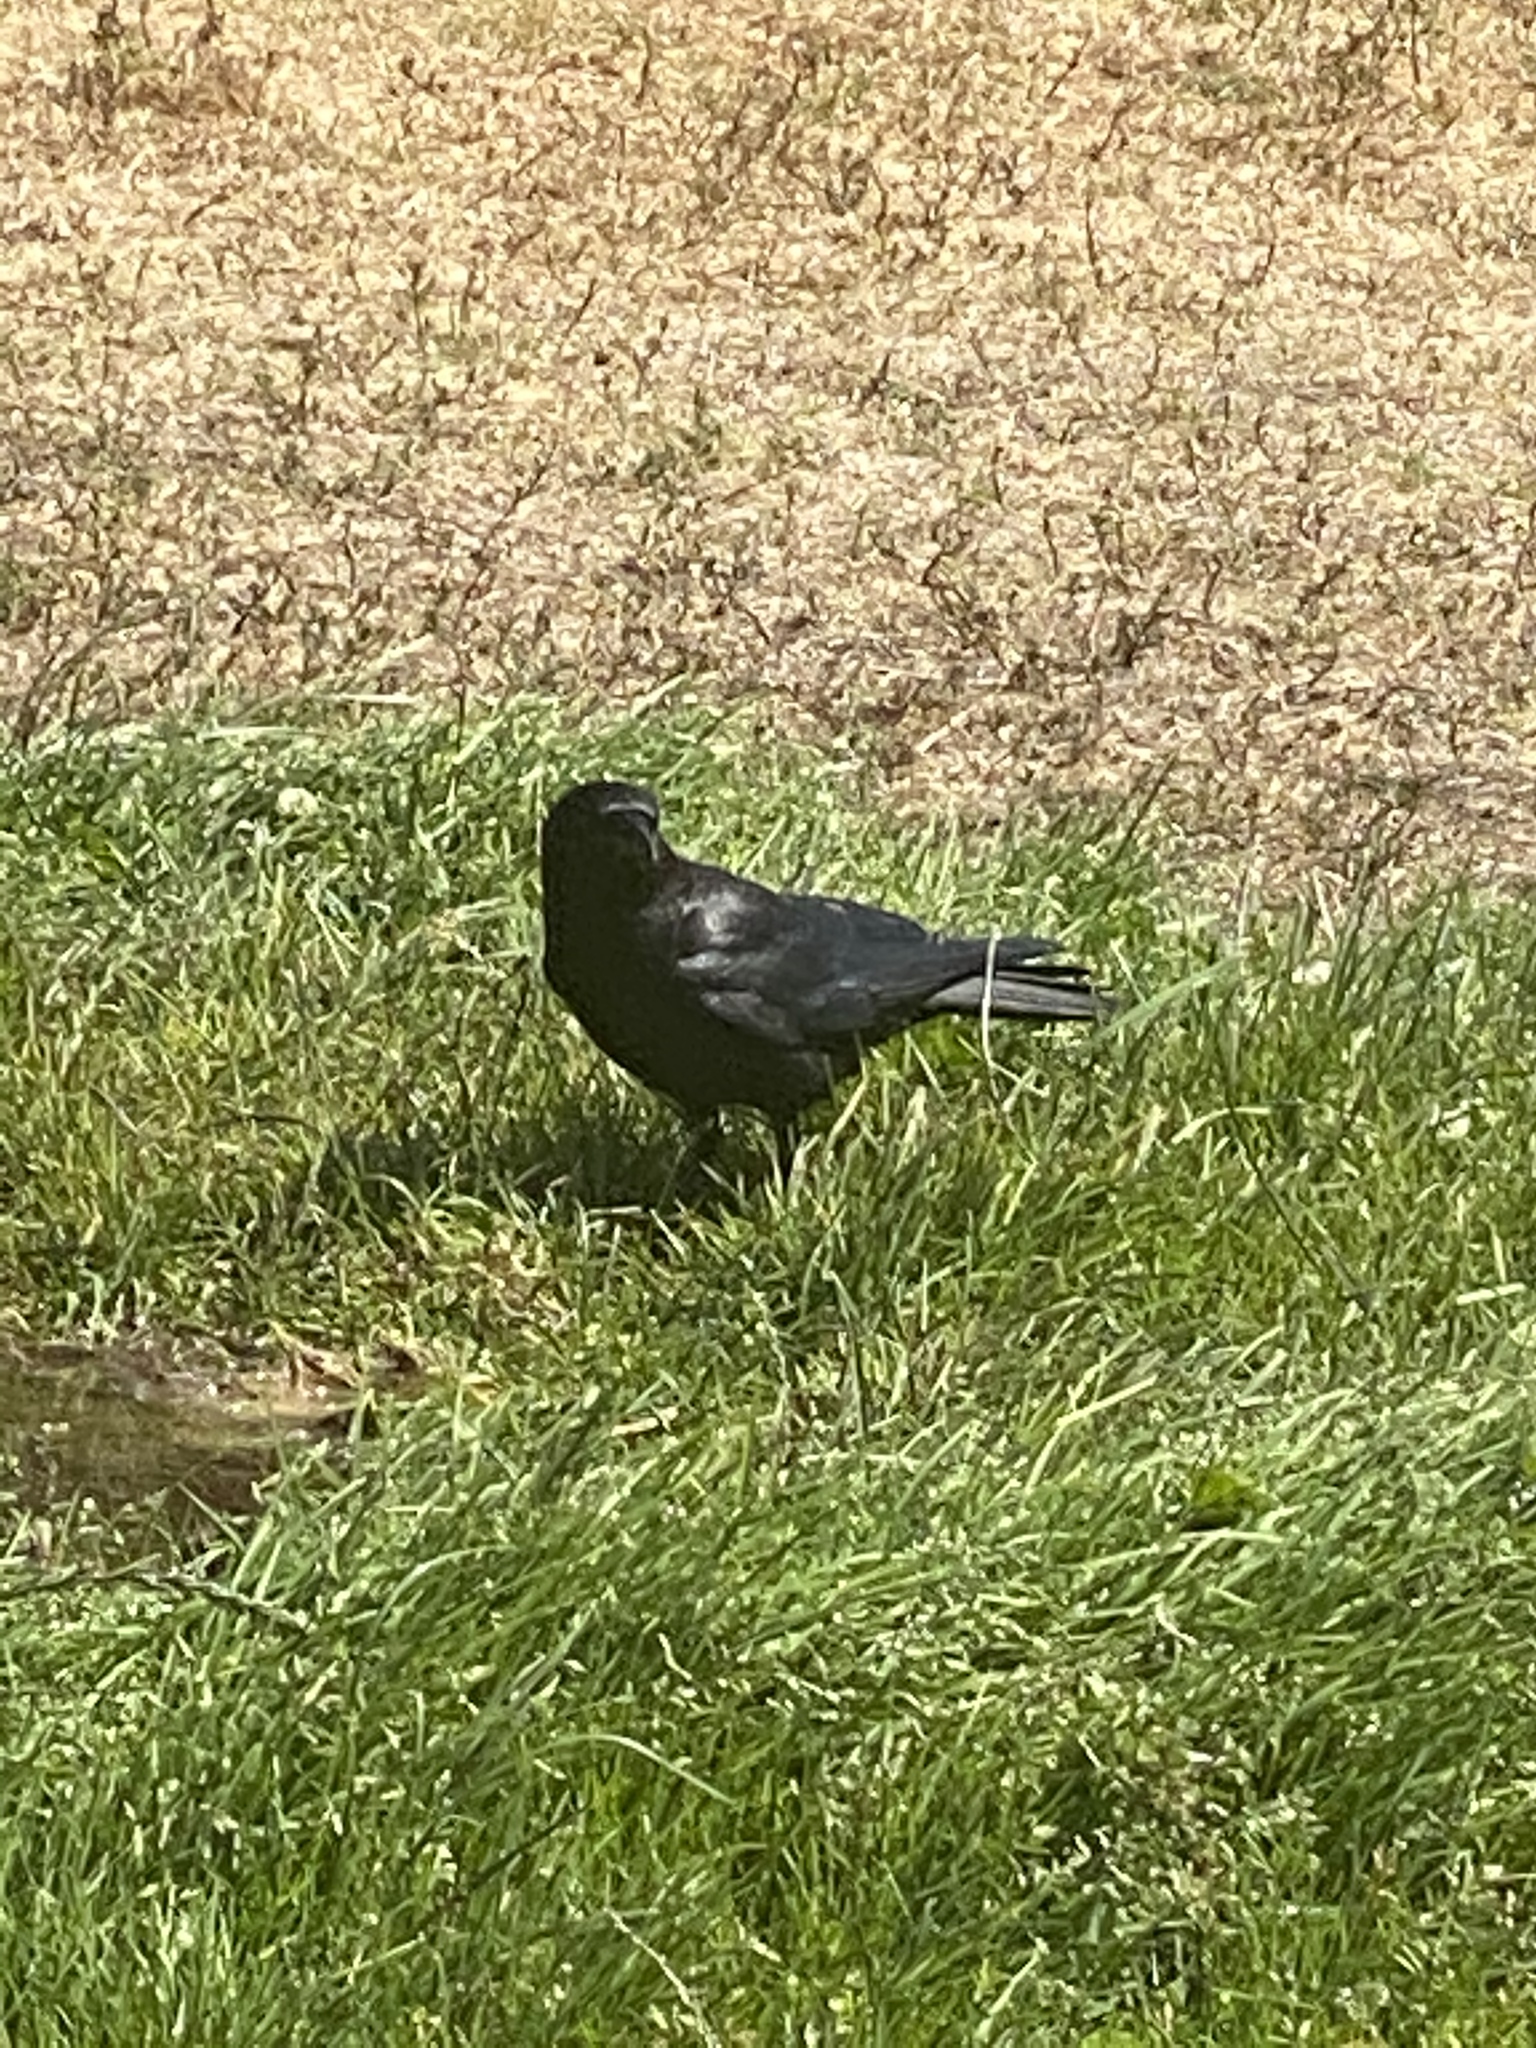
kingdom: Animalia
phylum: Chordata
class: Aves
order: Passeriformes
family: Corvidae
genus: Corvus
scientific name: Corvus brachyrhynchos
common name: American crow
